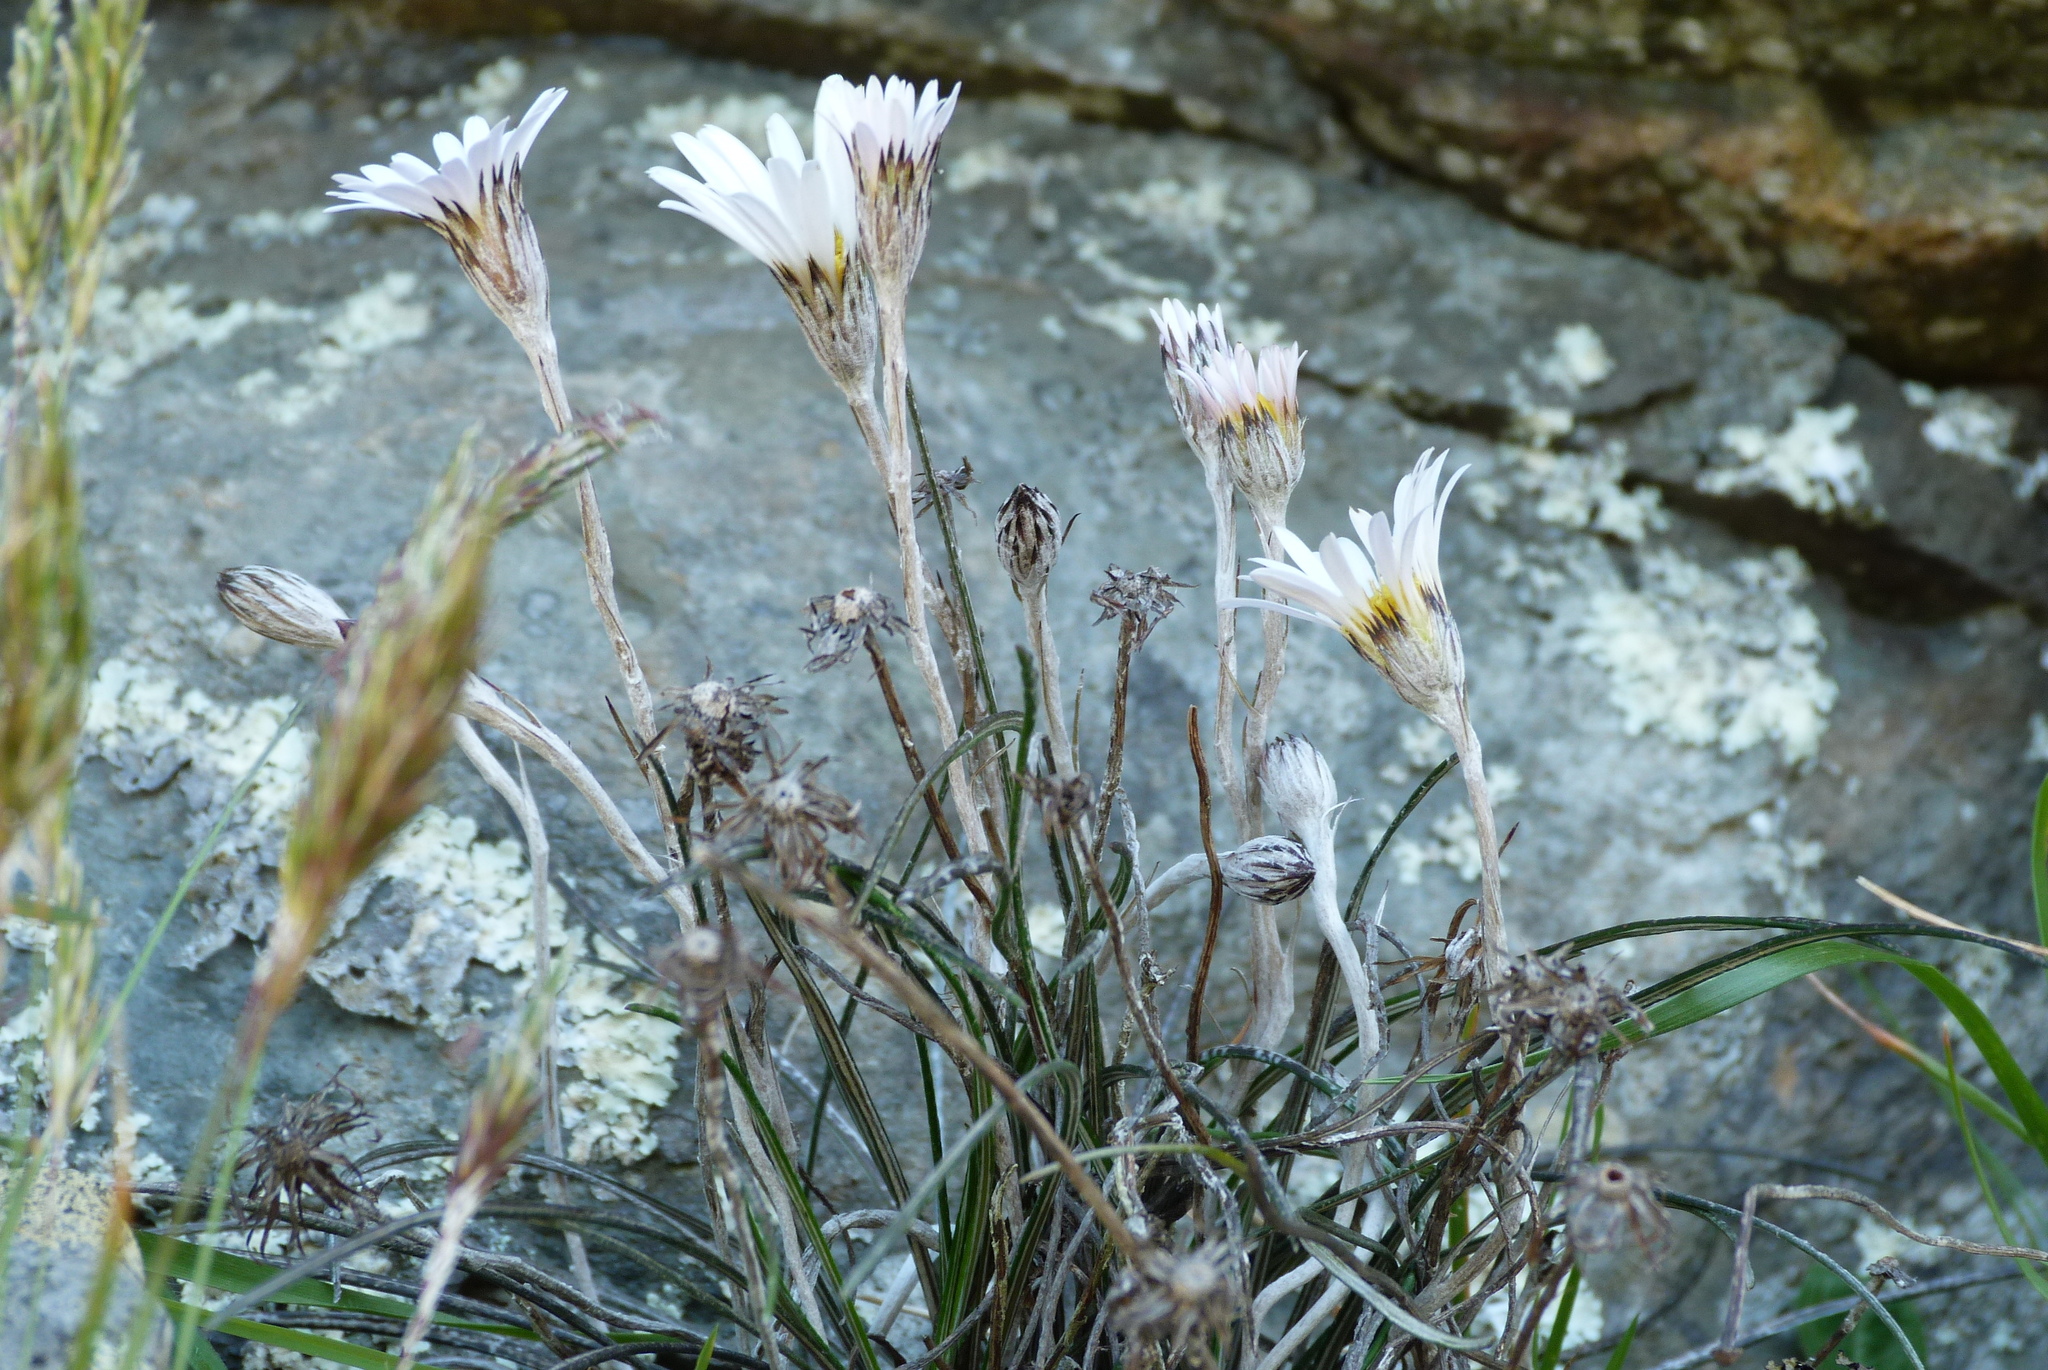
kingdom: Plantae
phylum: Tracheophyta
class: Magnoliopsida
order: Asterales
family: Asteraceae
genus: Celmisia
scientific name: Celmisia gracilenta
